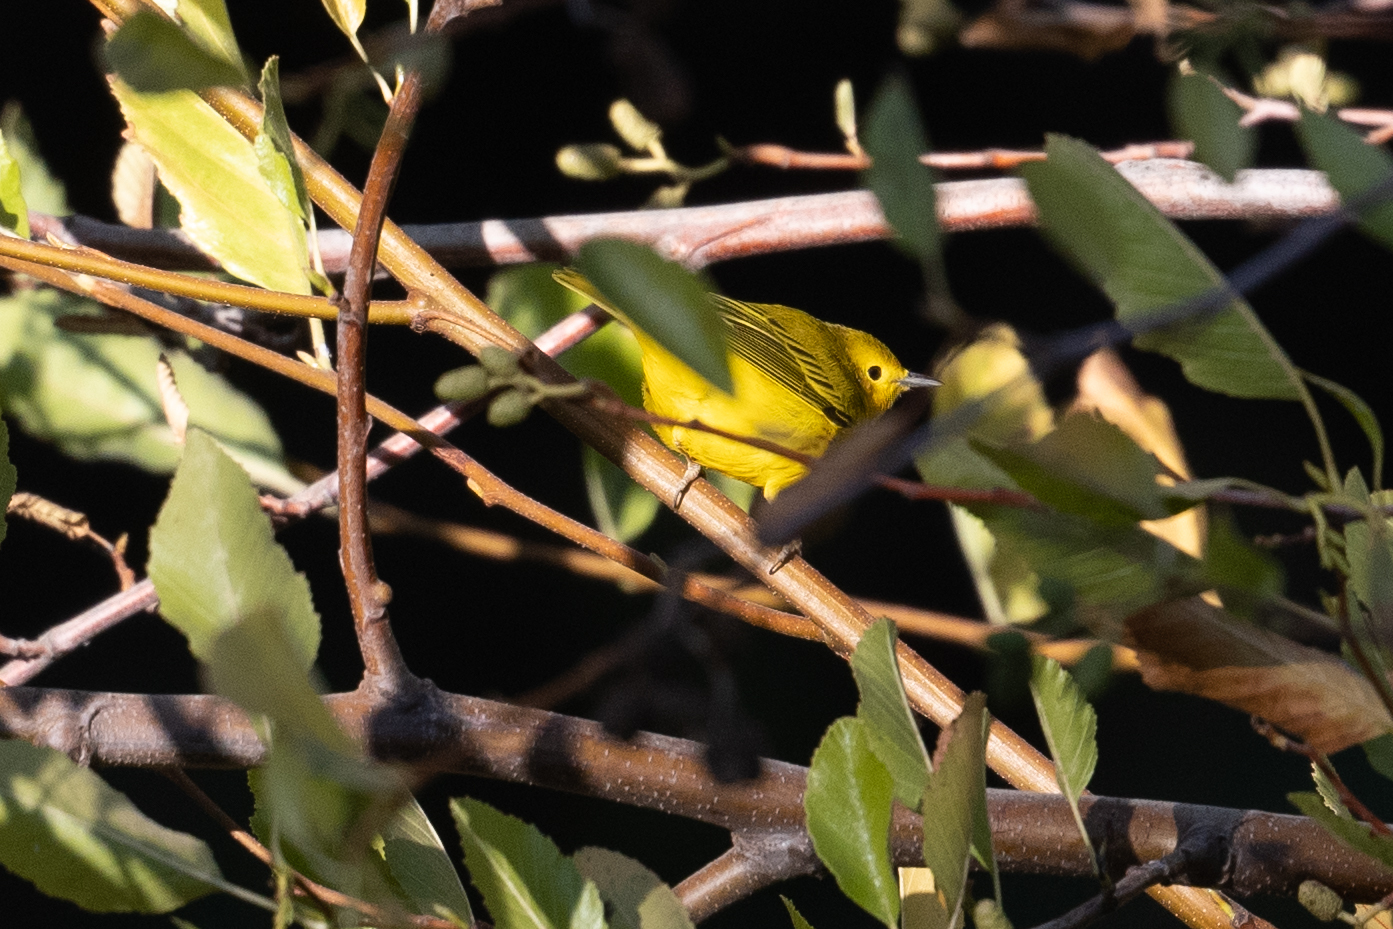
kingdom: Animalia
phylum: Chordata
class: Aves
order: Passeriformes
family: Parulidae
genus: Setophaga
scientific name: Setophaga petechia
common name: Yellow warbler
